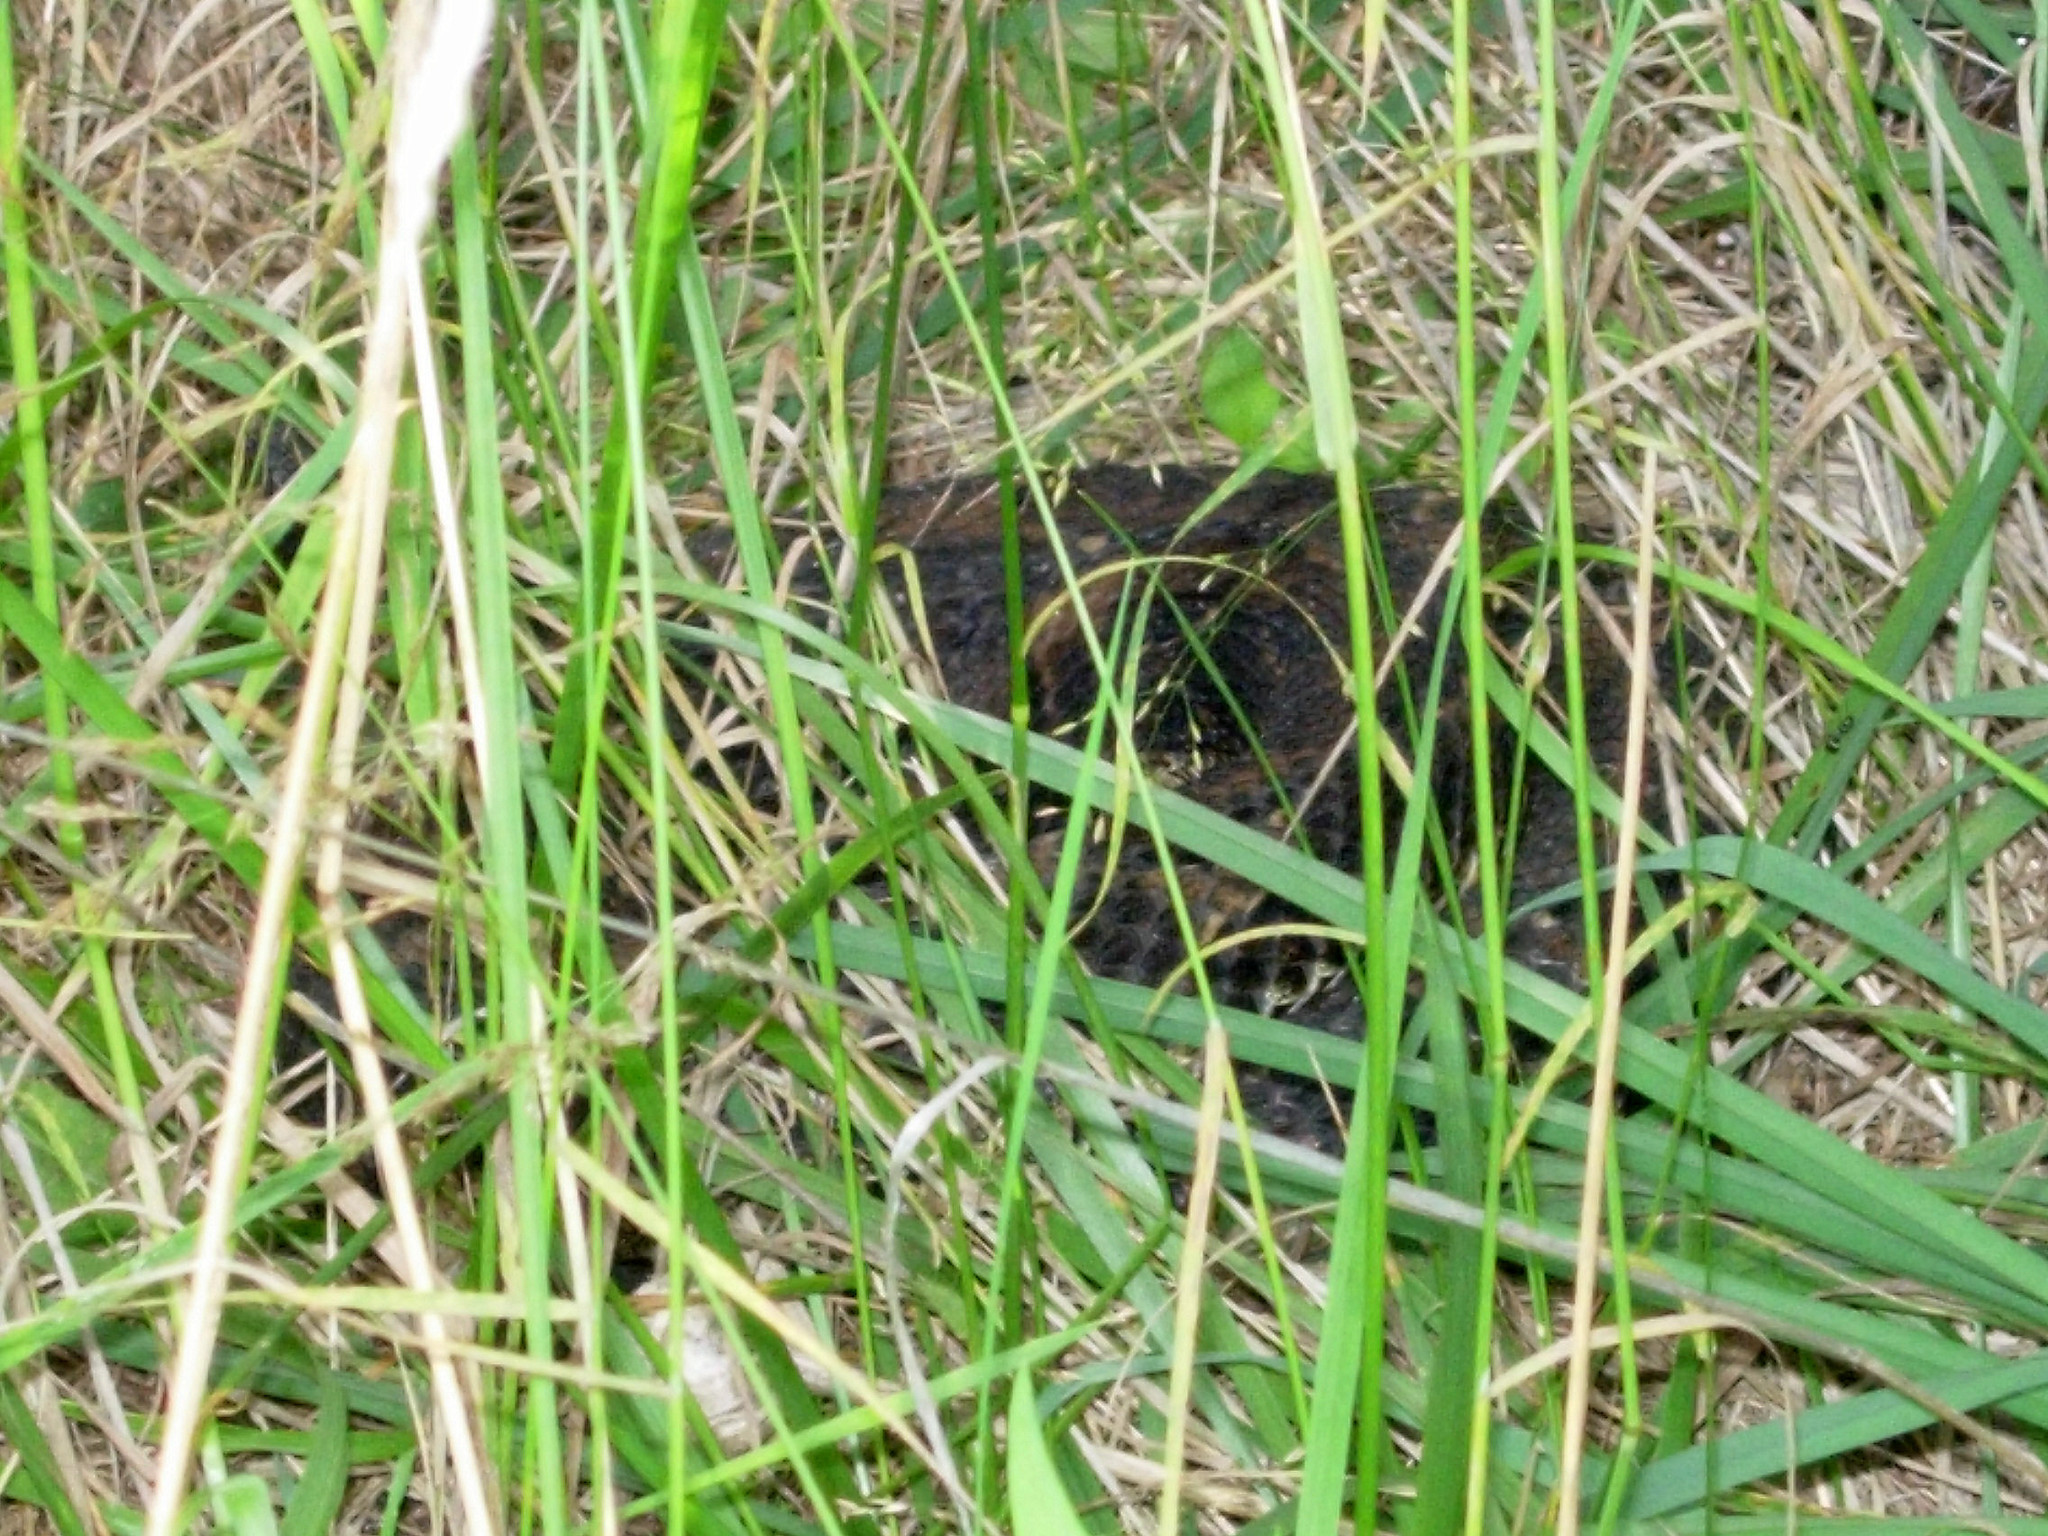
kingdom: Animalia
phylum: Chordata
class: Squamata
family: Viperidae
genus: Crotalus
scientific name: Crotalus horridus
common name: Timber rattlesnake
